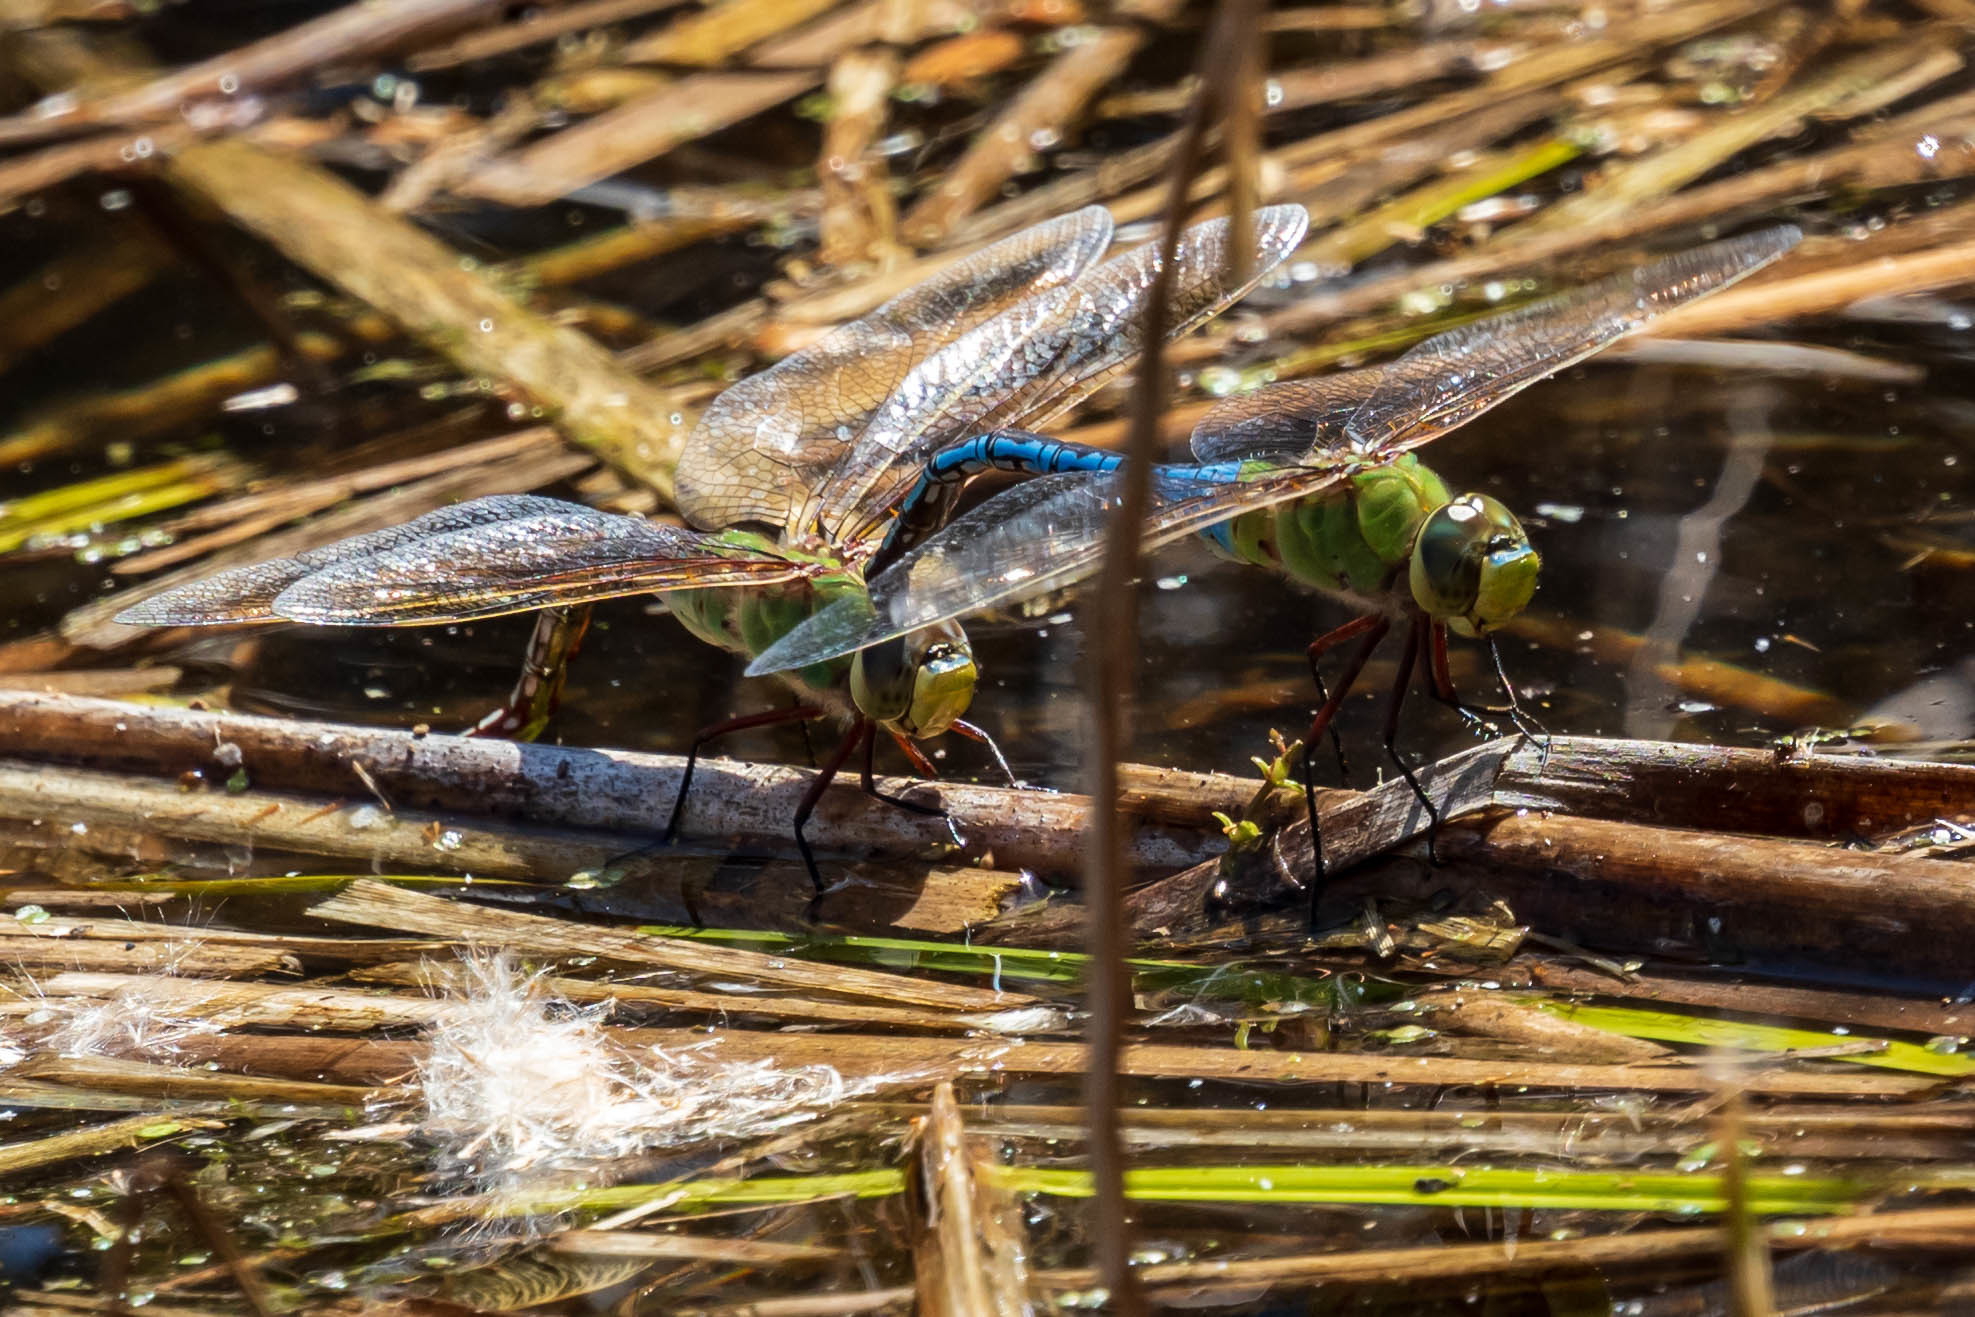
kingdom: Animalia
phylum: Arthropoda
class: Insecta
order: Odonata
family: Aeshnidae
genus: Anax
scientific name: Anax junius
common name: Common green darner
